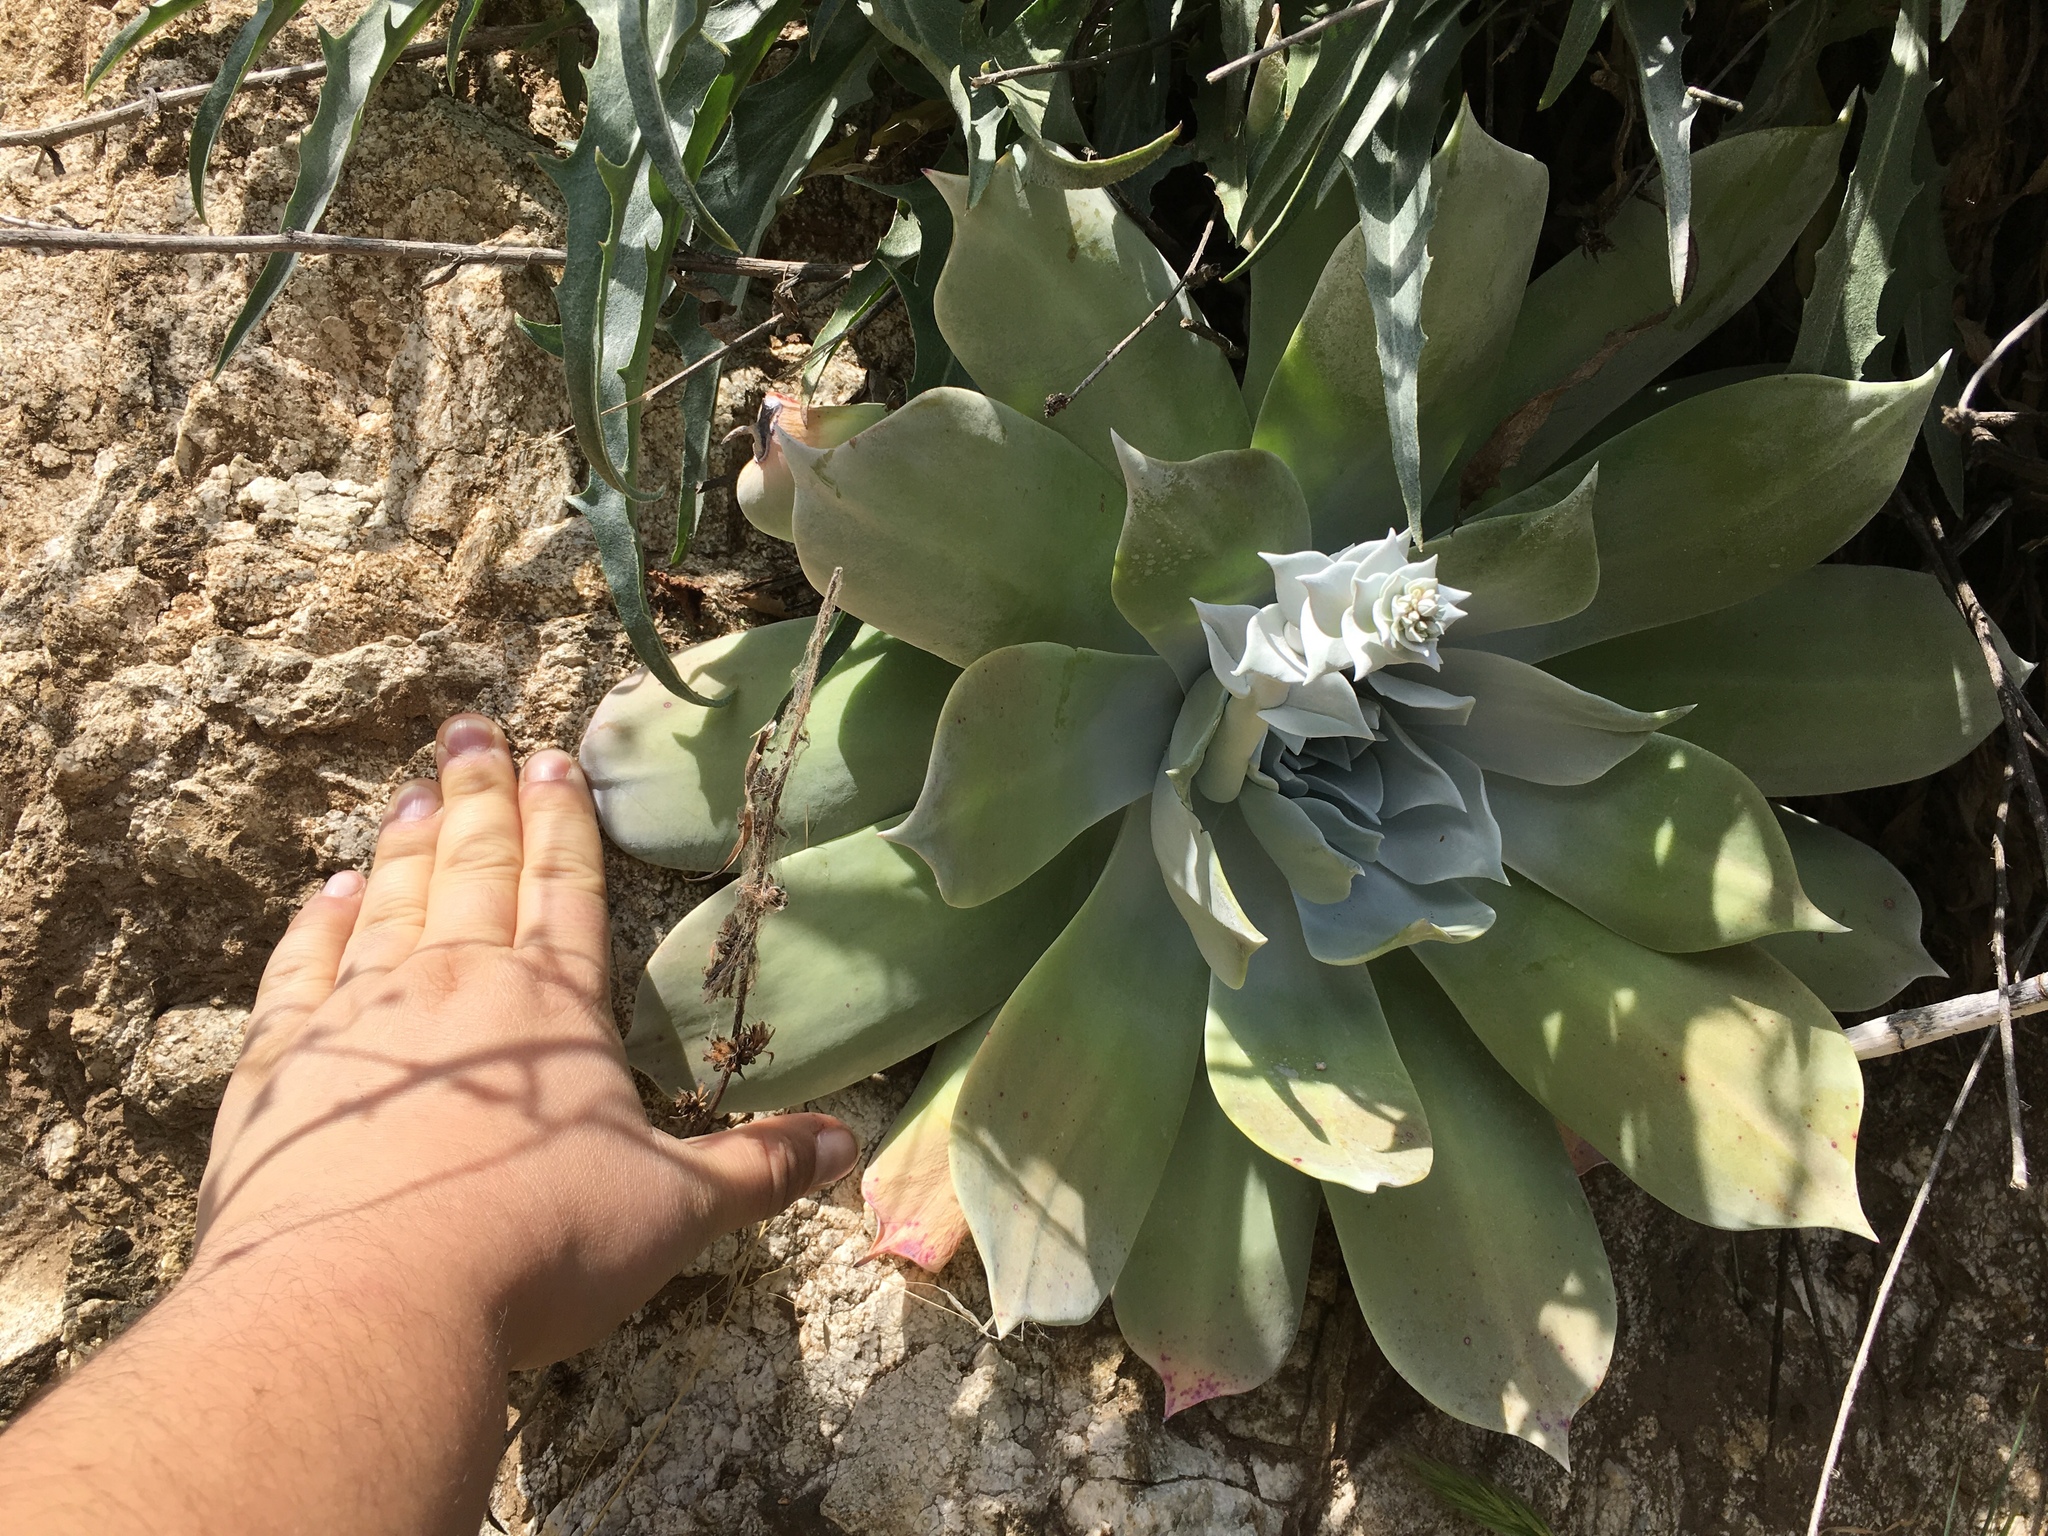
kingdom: Plantae
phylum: Tracheophyta
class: Magnoliopsida
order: Saxifragales
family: Crassulaceae
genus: Dudleya
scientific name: Dudleya pulverulenta
